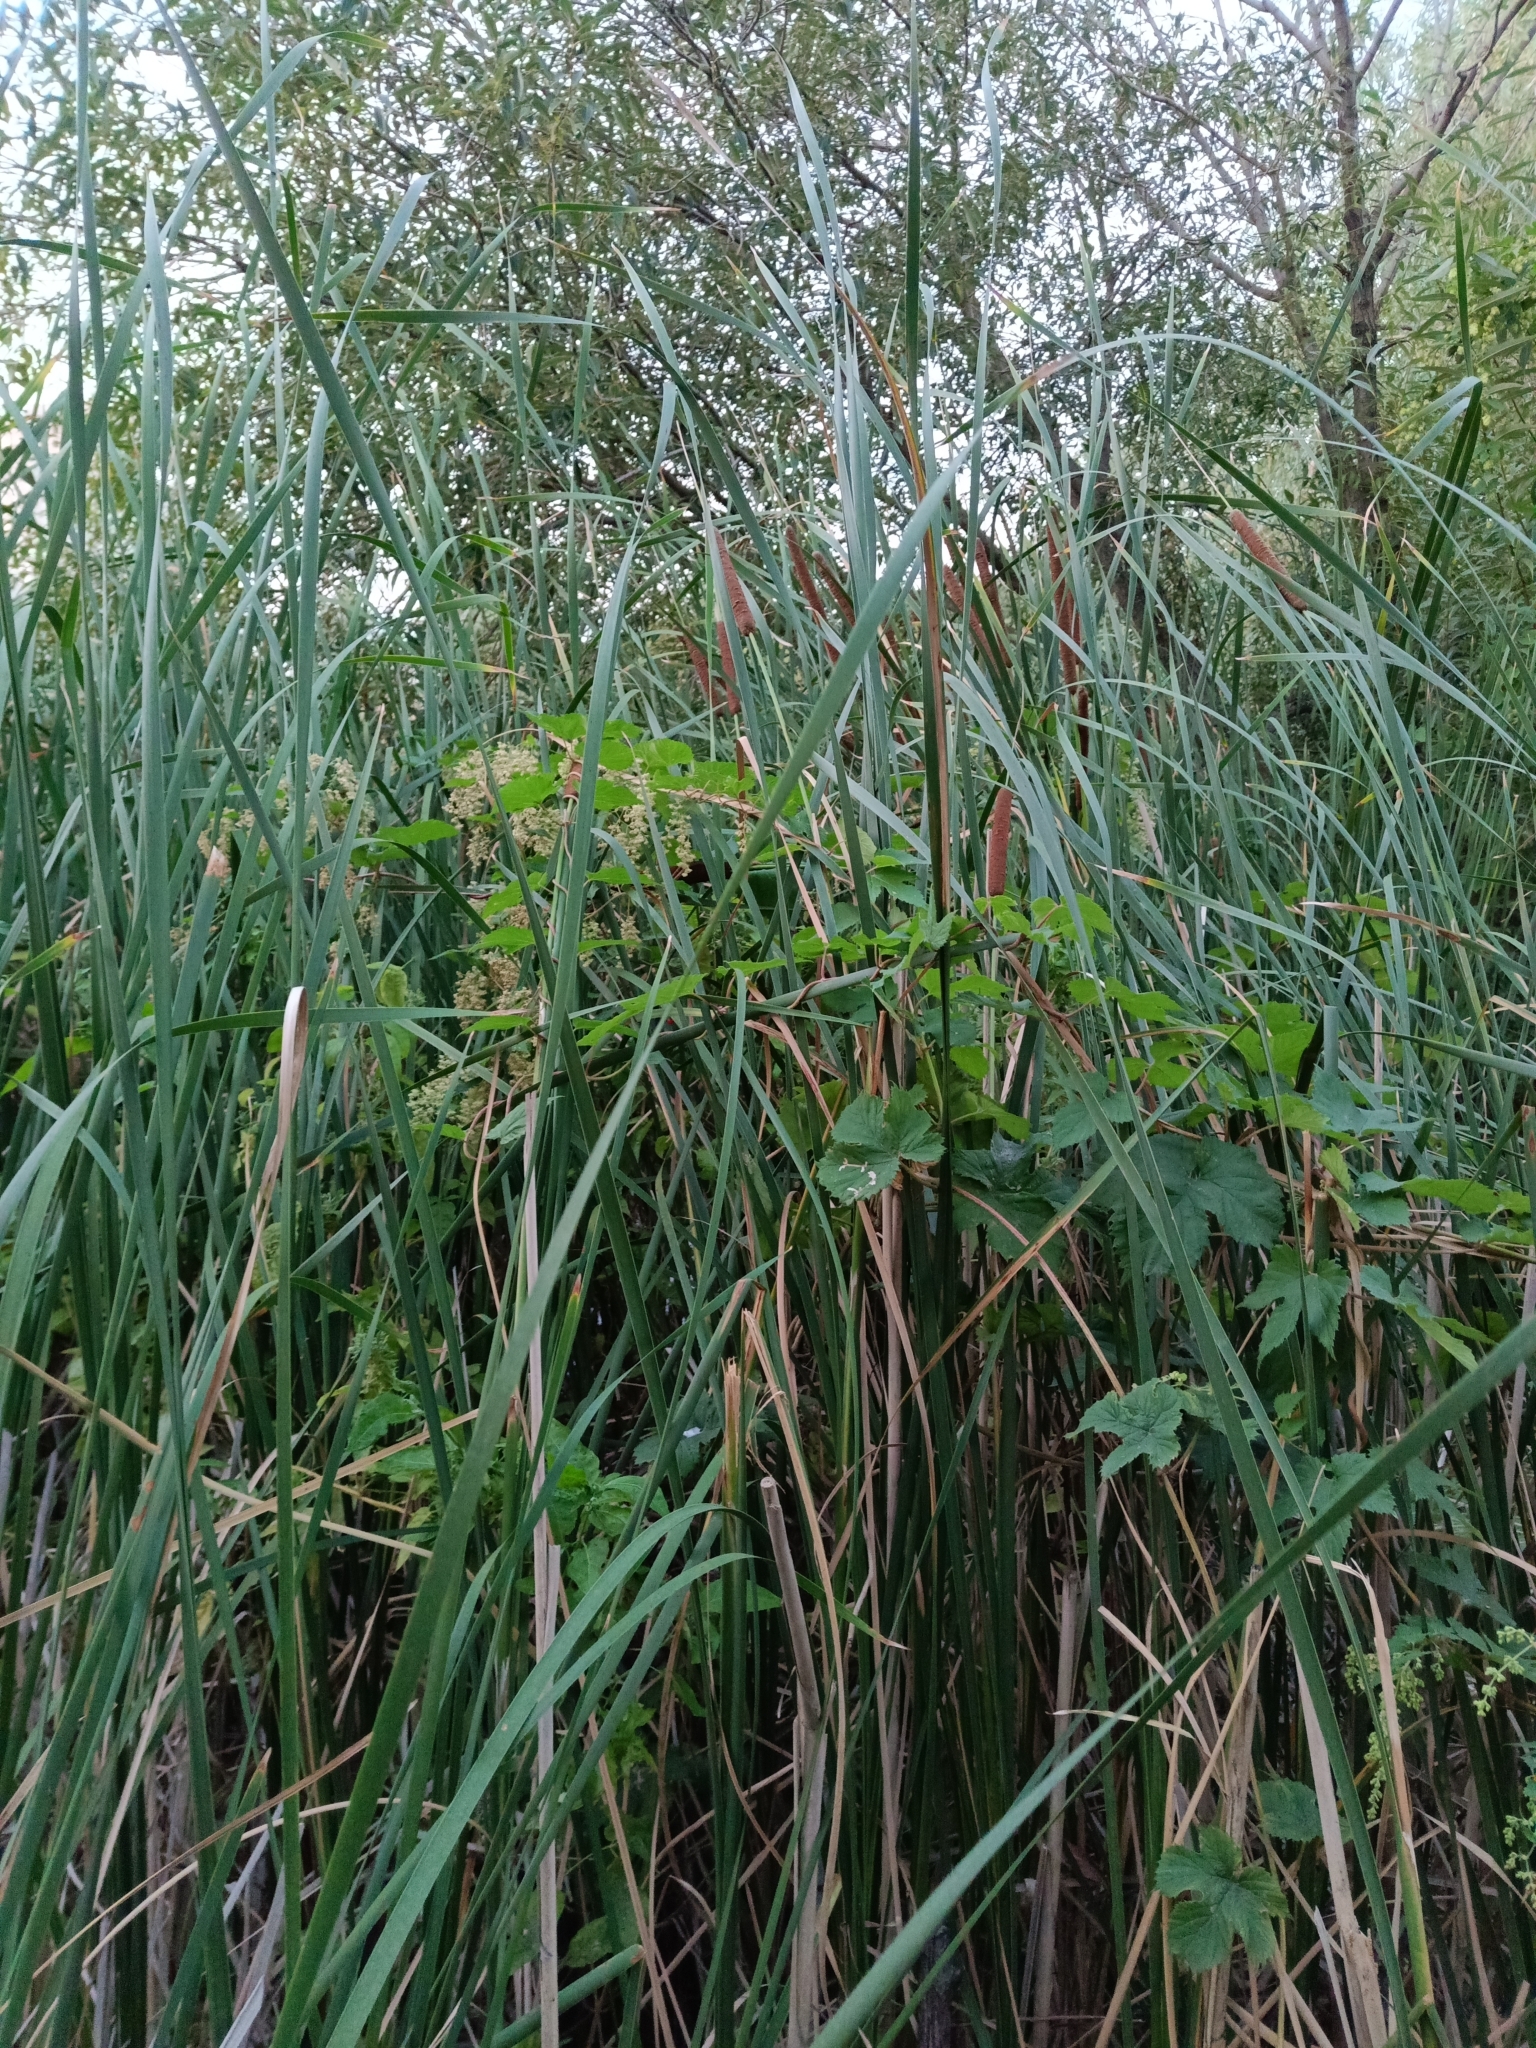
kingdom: Plantae
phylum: Tracheophyta
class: Liliopsida
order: Poales
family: Typhaceae
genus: Typha
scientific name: Typha angustifolia
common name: Lesser bulrush
